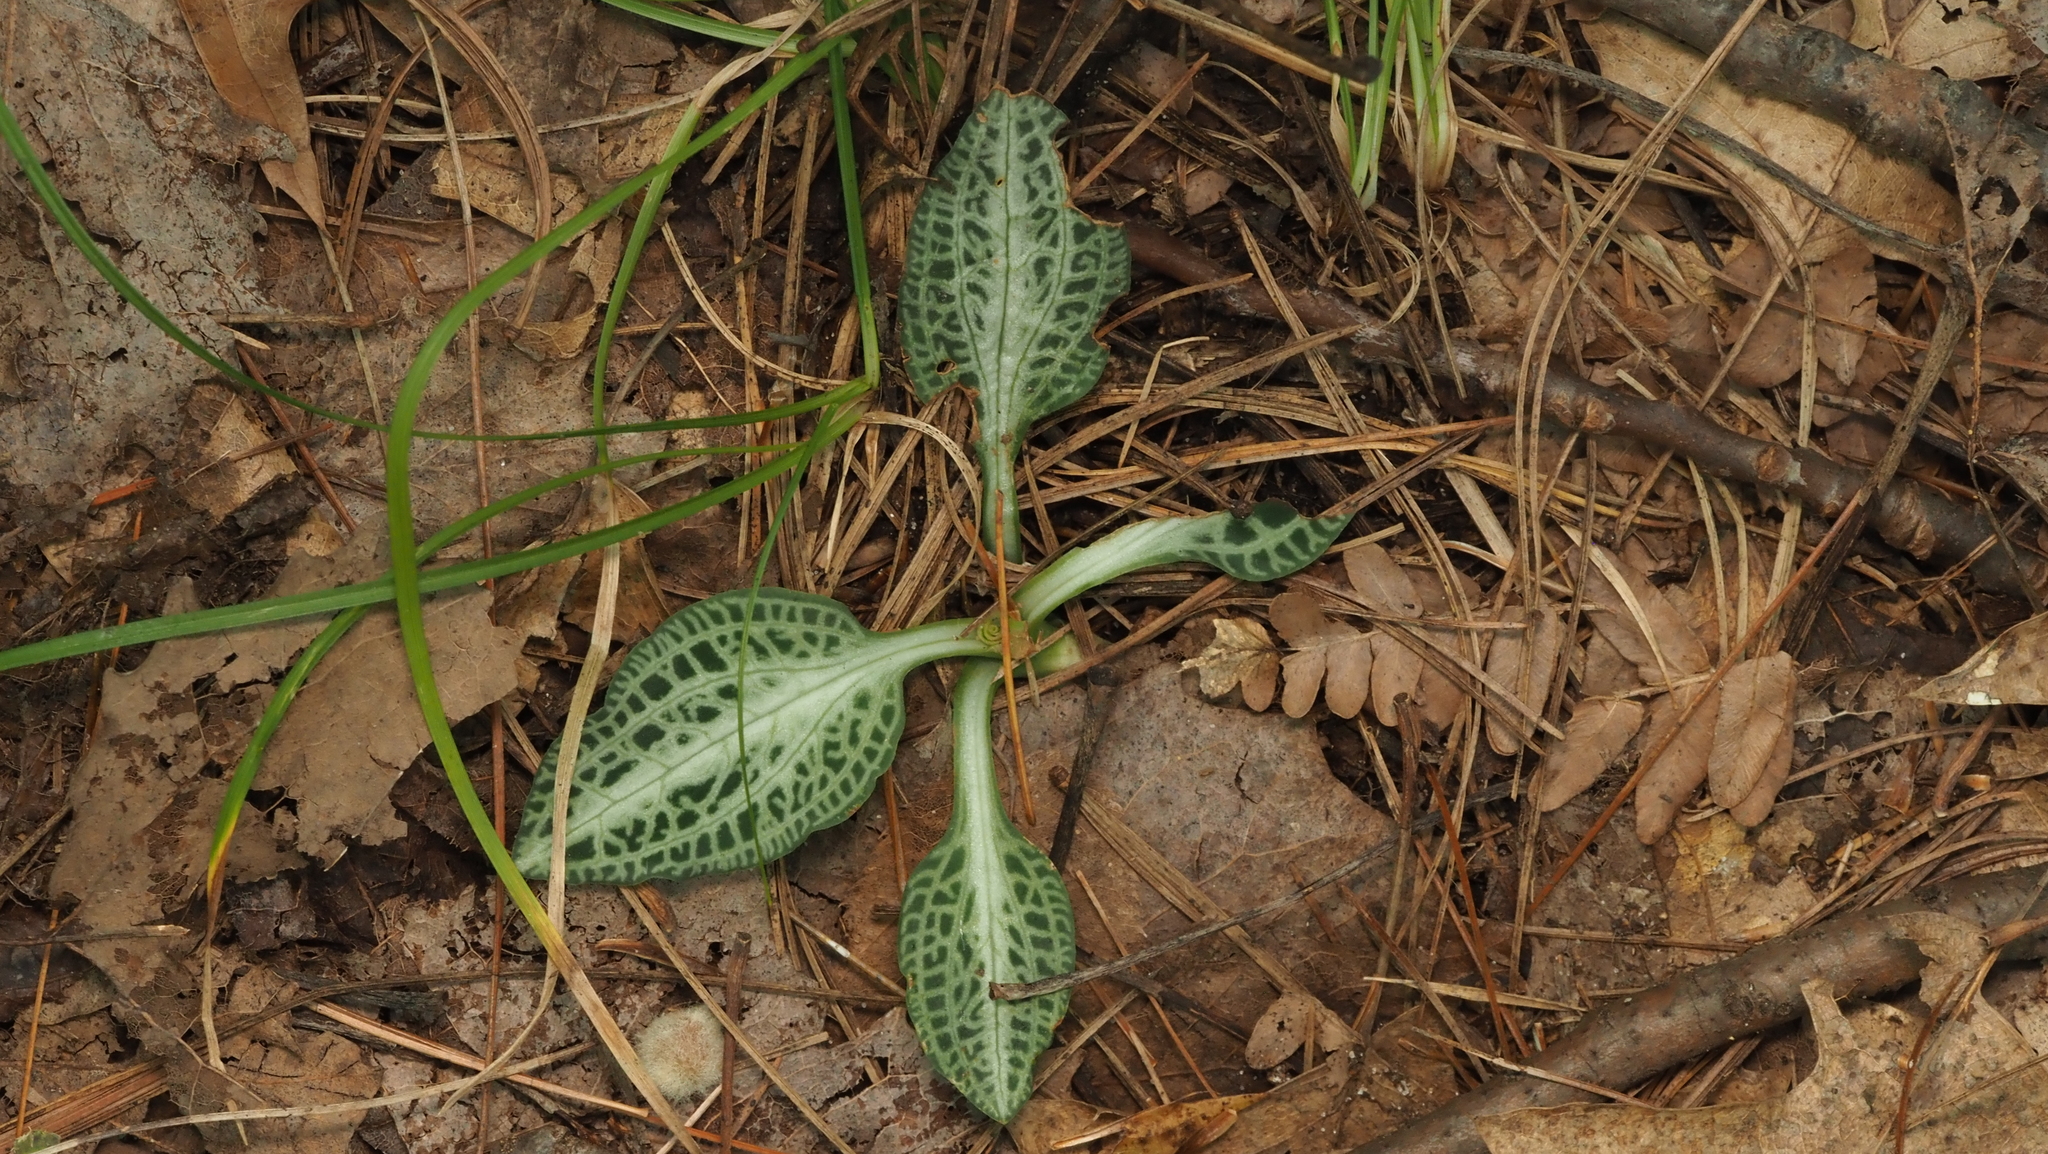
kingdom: Plantae
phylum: Tracheophyta
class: Liliopsida
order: Asparagales
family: Orchidaceae
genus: Goodyera
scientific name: Goodyera pubescens
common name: Downy rattlesnake-plantain
